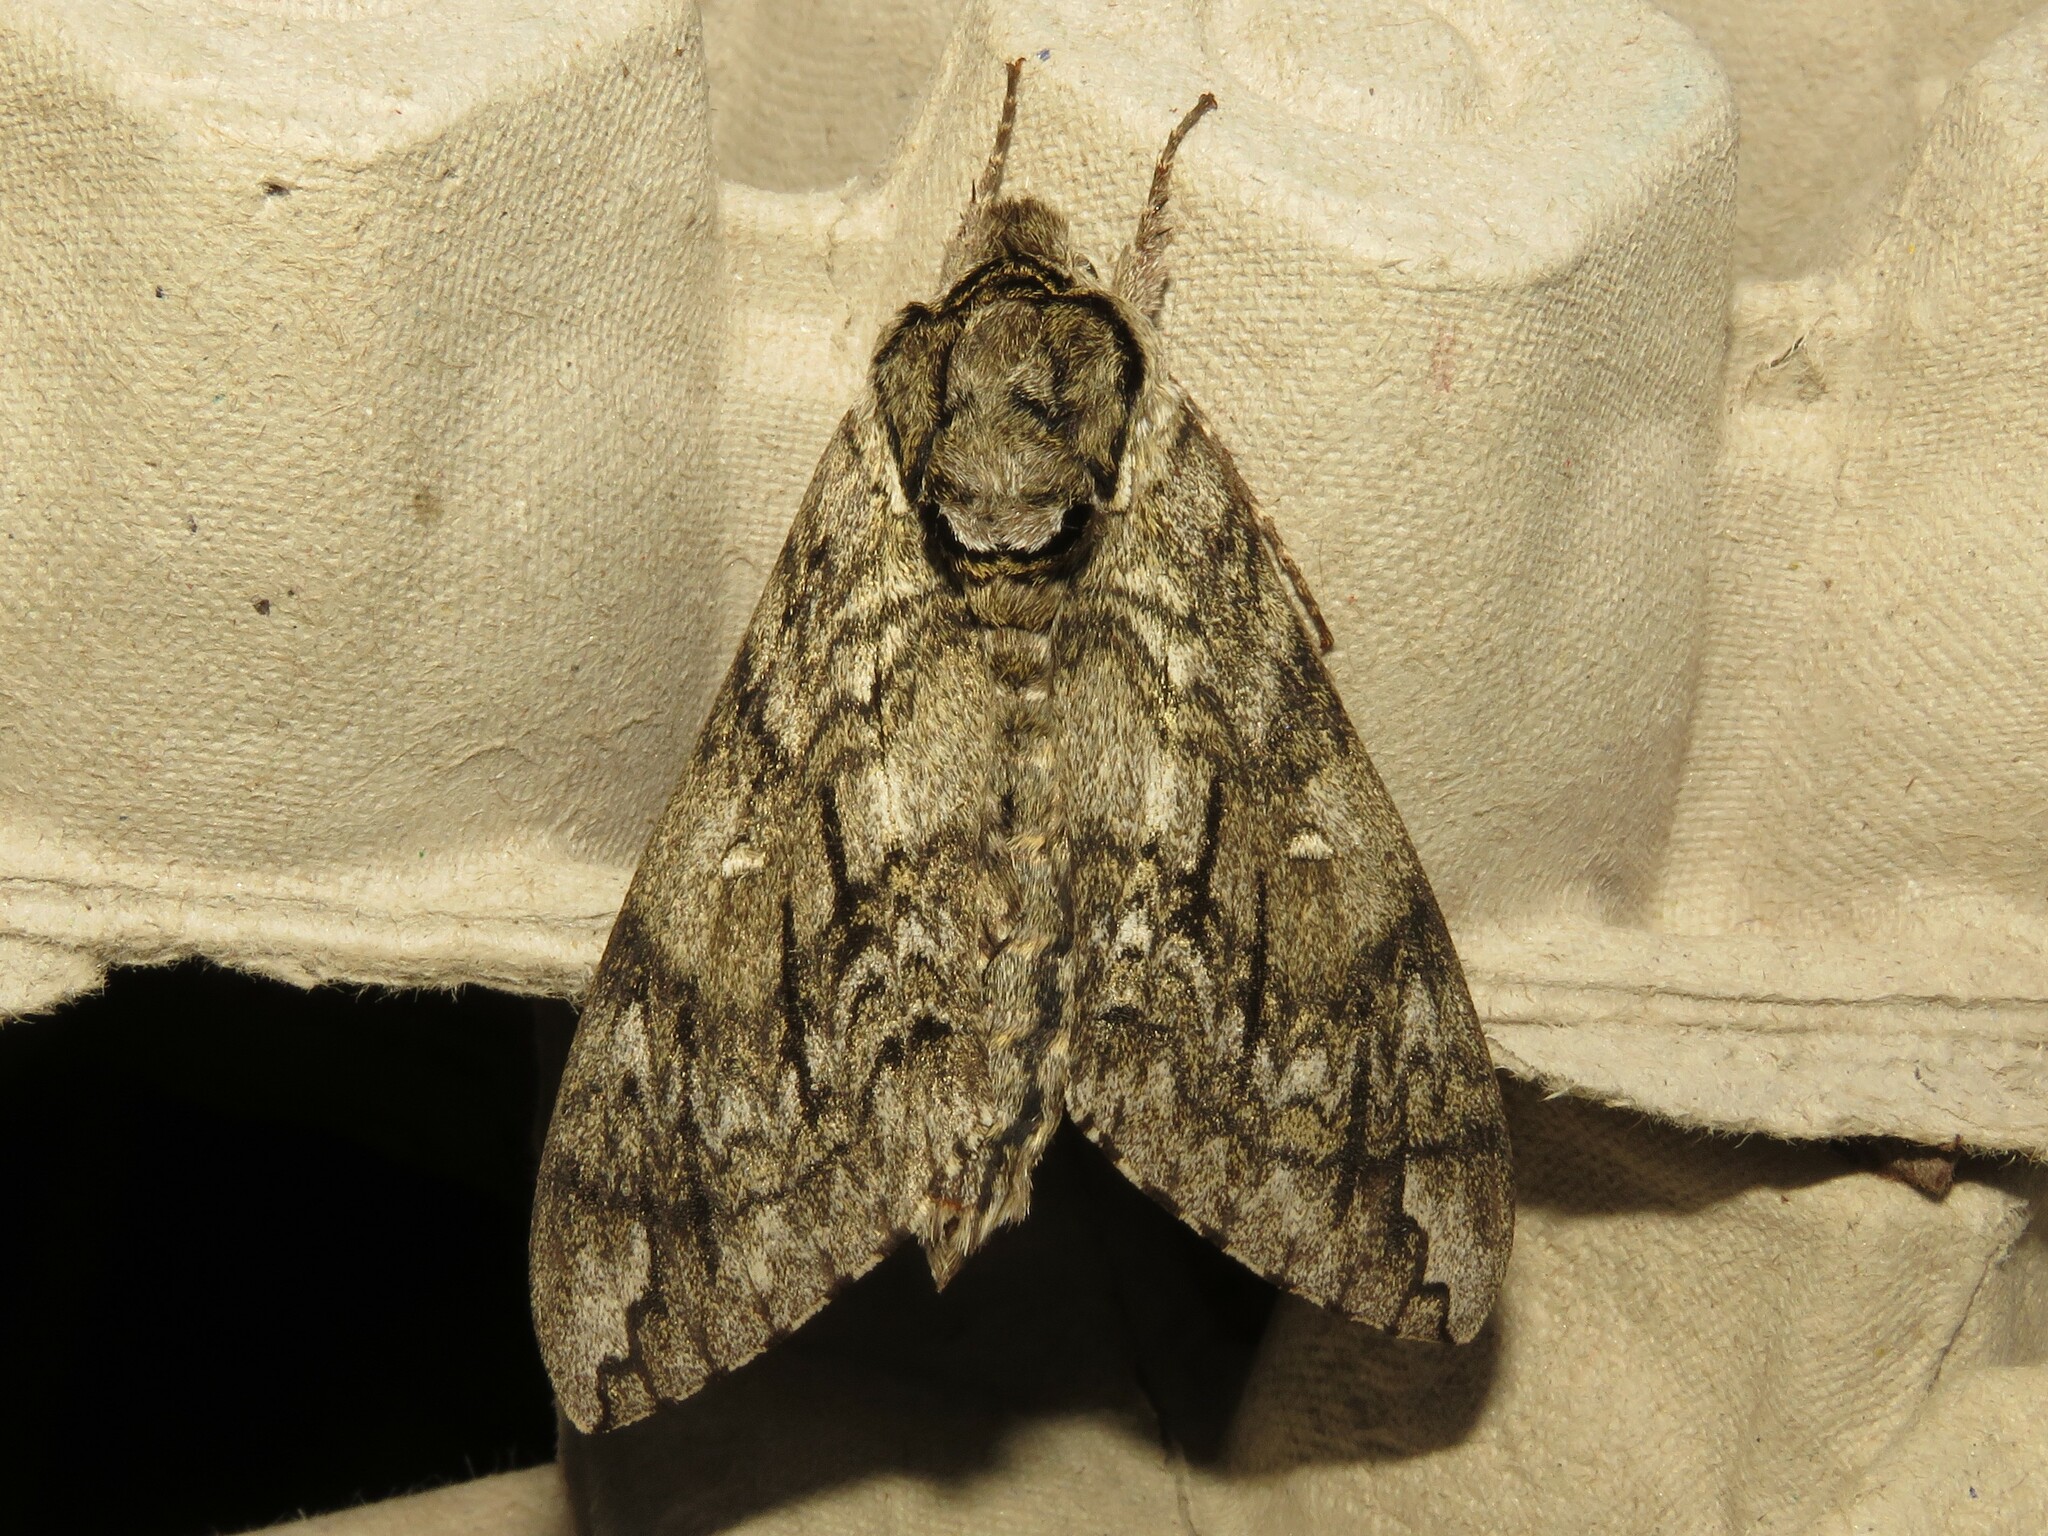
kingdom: Animalia
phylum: Arthropoda
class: Insecta
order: Lepidoptera
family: Sphingidae
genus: Ceratomia
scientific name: Ceratomia undulosa
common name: Waved sphinx
